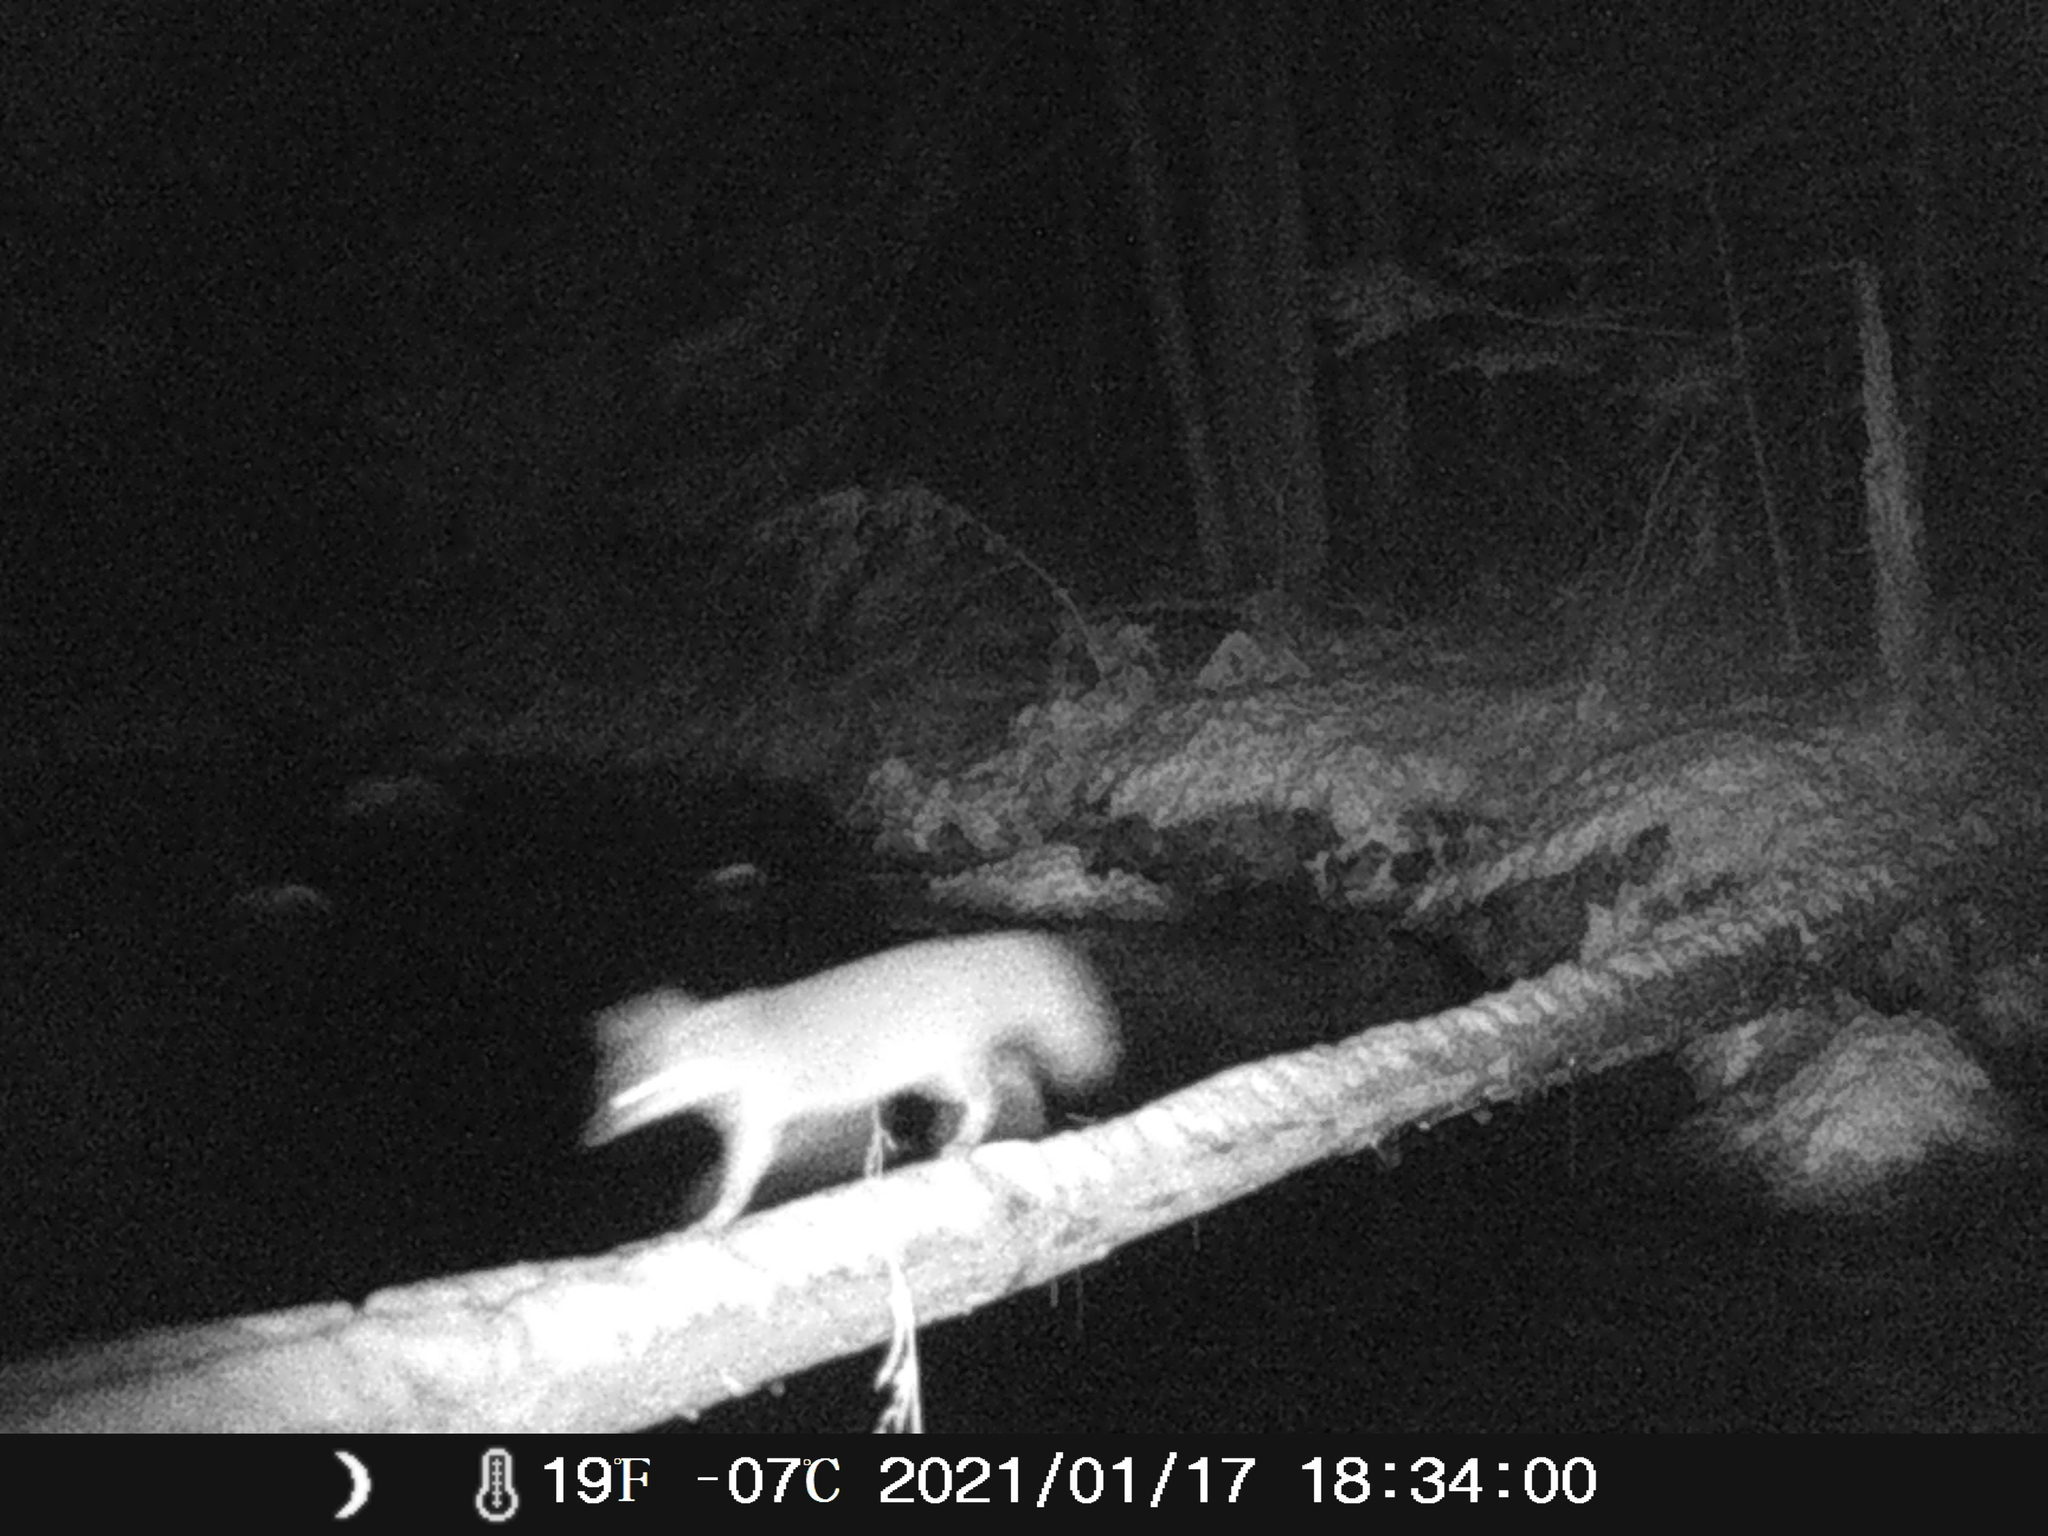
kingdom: Animalia
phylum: Chordata
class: Mammalia
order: Carnivora
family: Canidae
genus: Urocyon
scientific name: Urocyon cinereoargenteus
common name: Gray fox
